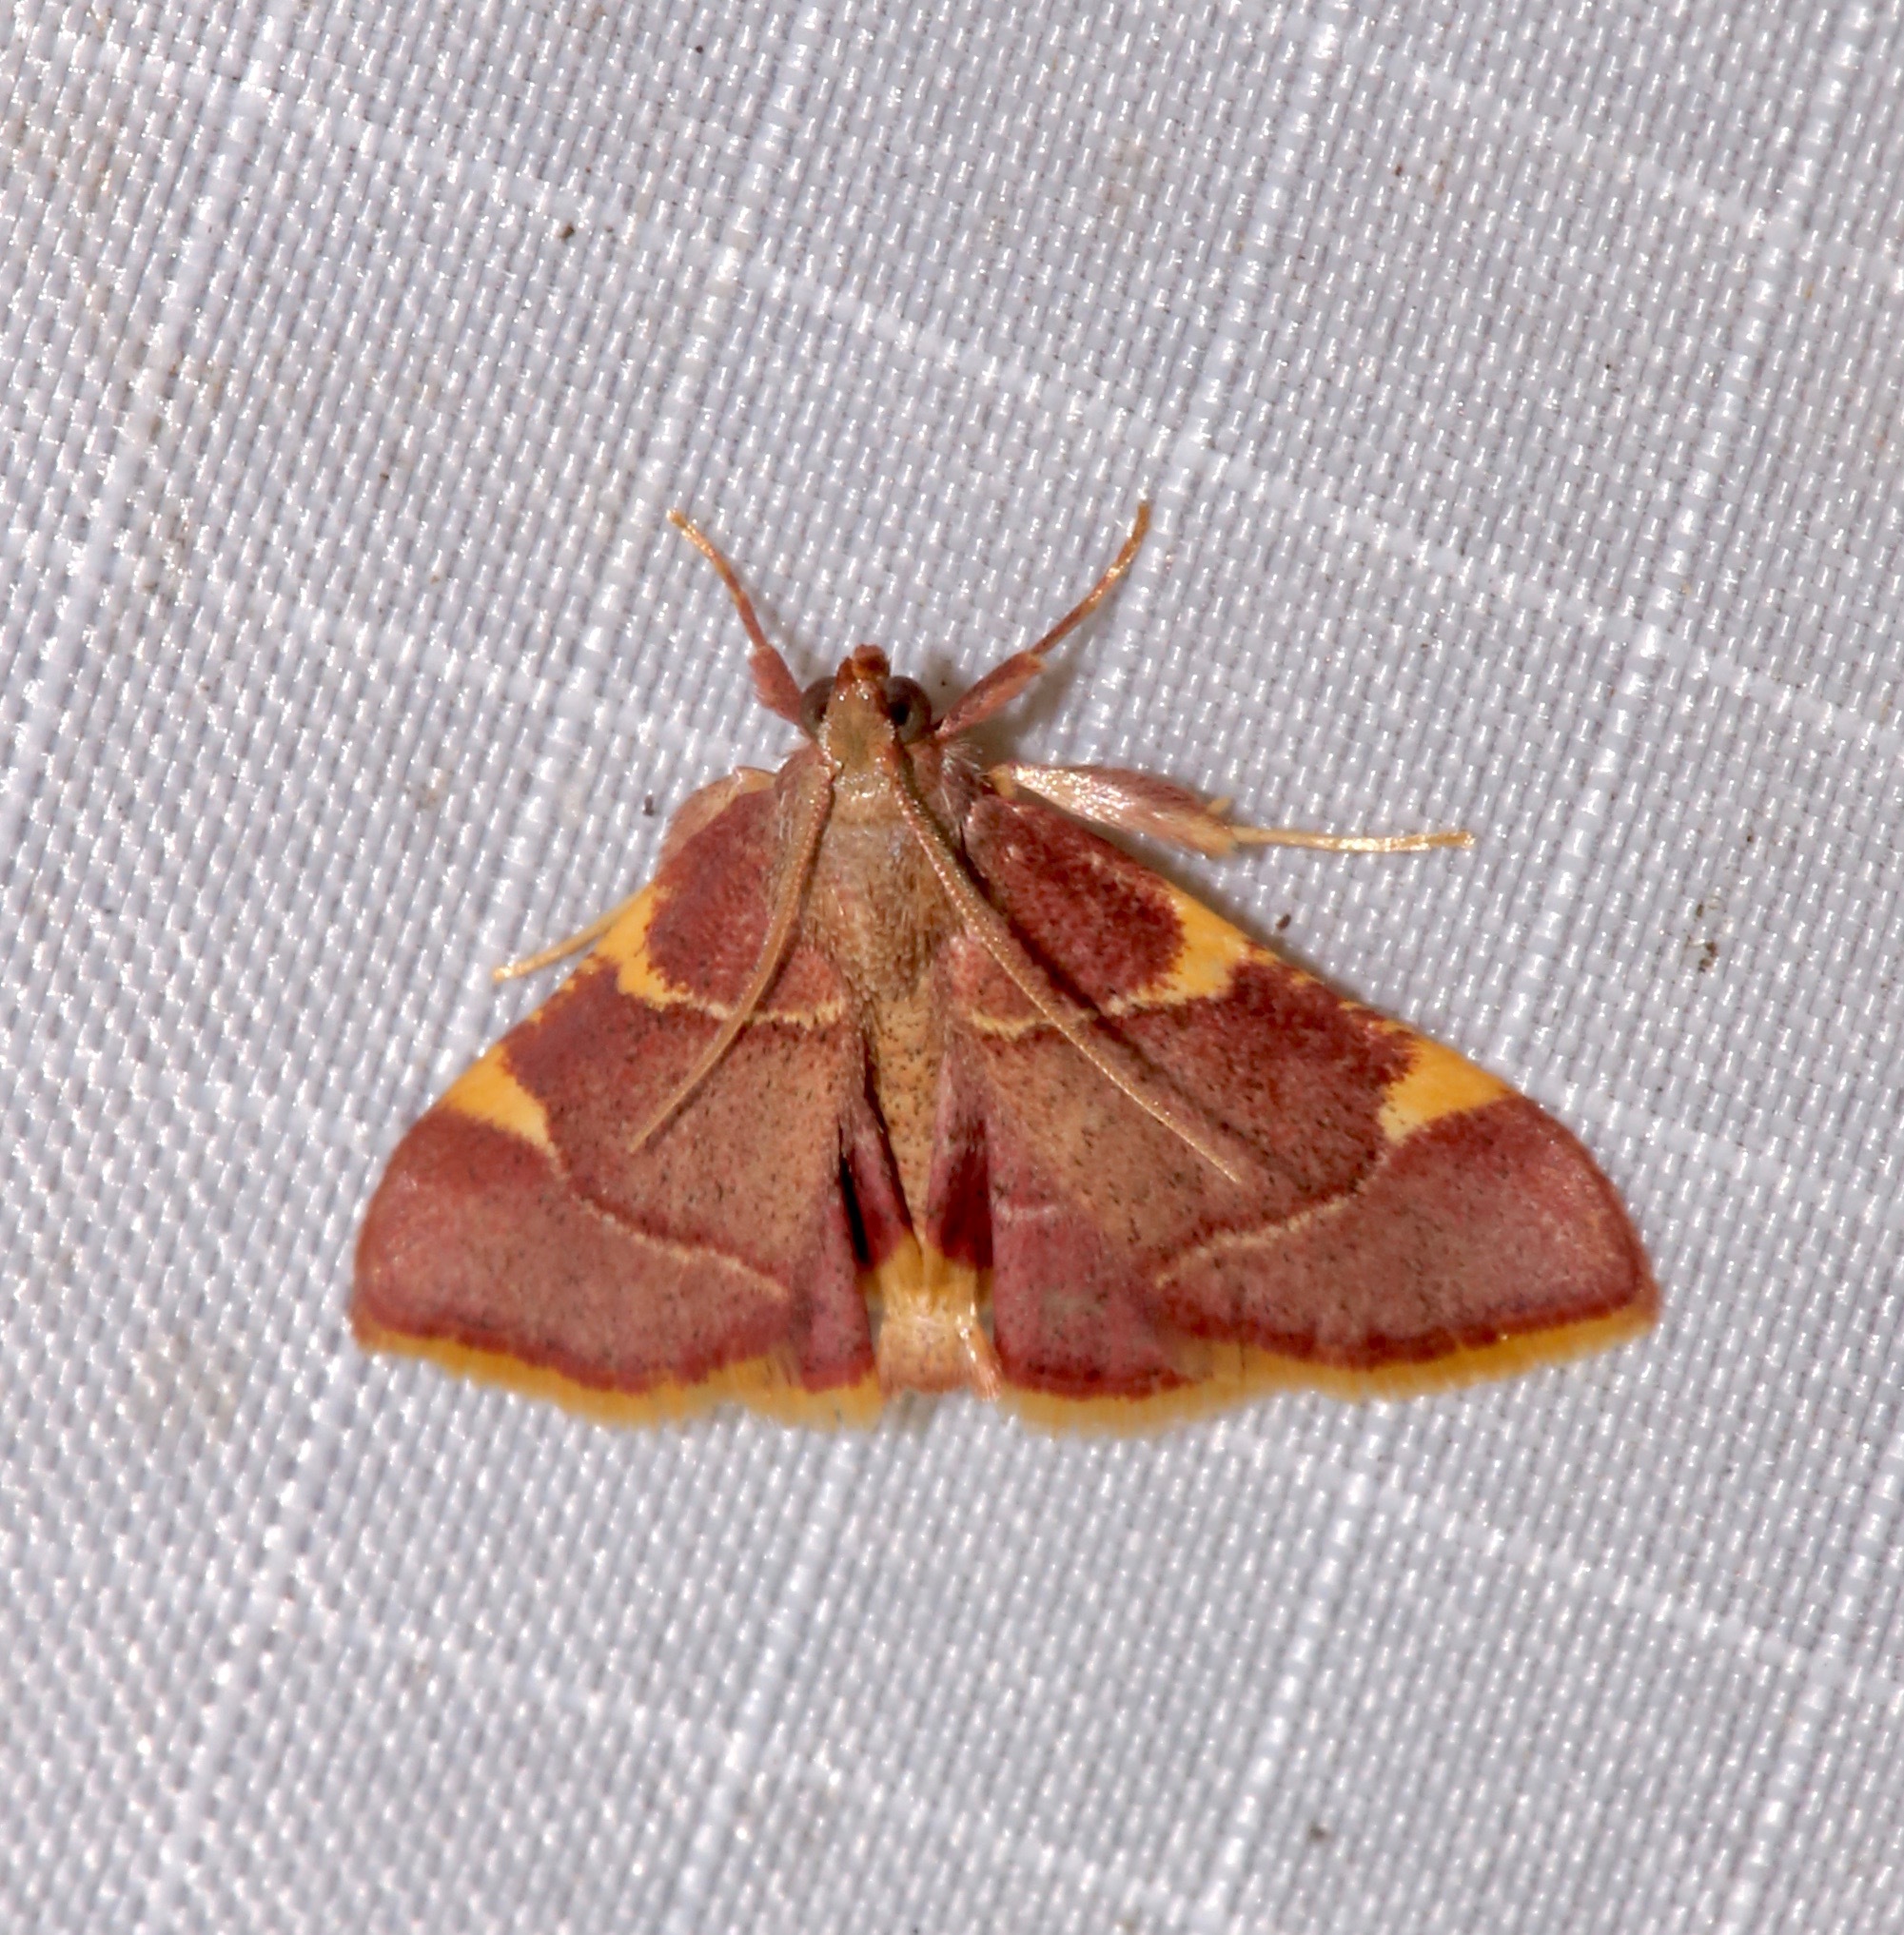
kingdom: Animalia
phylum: Arthropoda
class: Insecta
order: Lepidoptera
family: Pyralidae
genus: Hypsopygia
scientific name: Hypsopygia olinalis
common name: Yellow-fringed dolichomia moth
